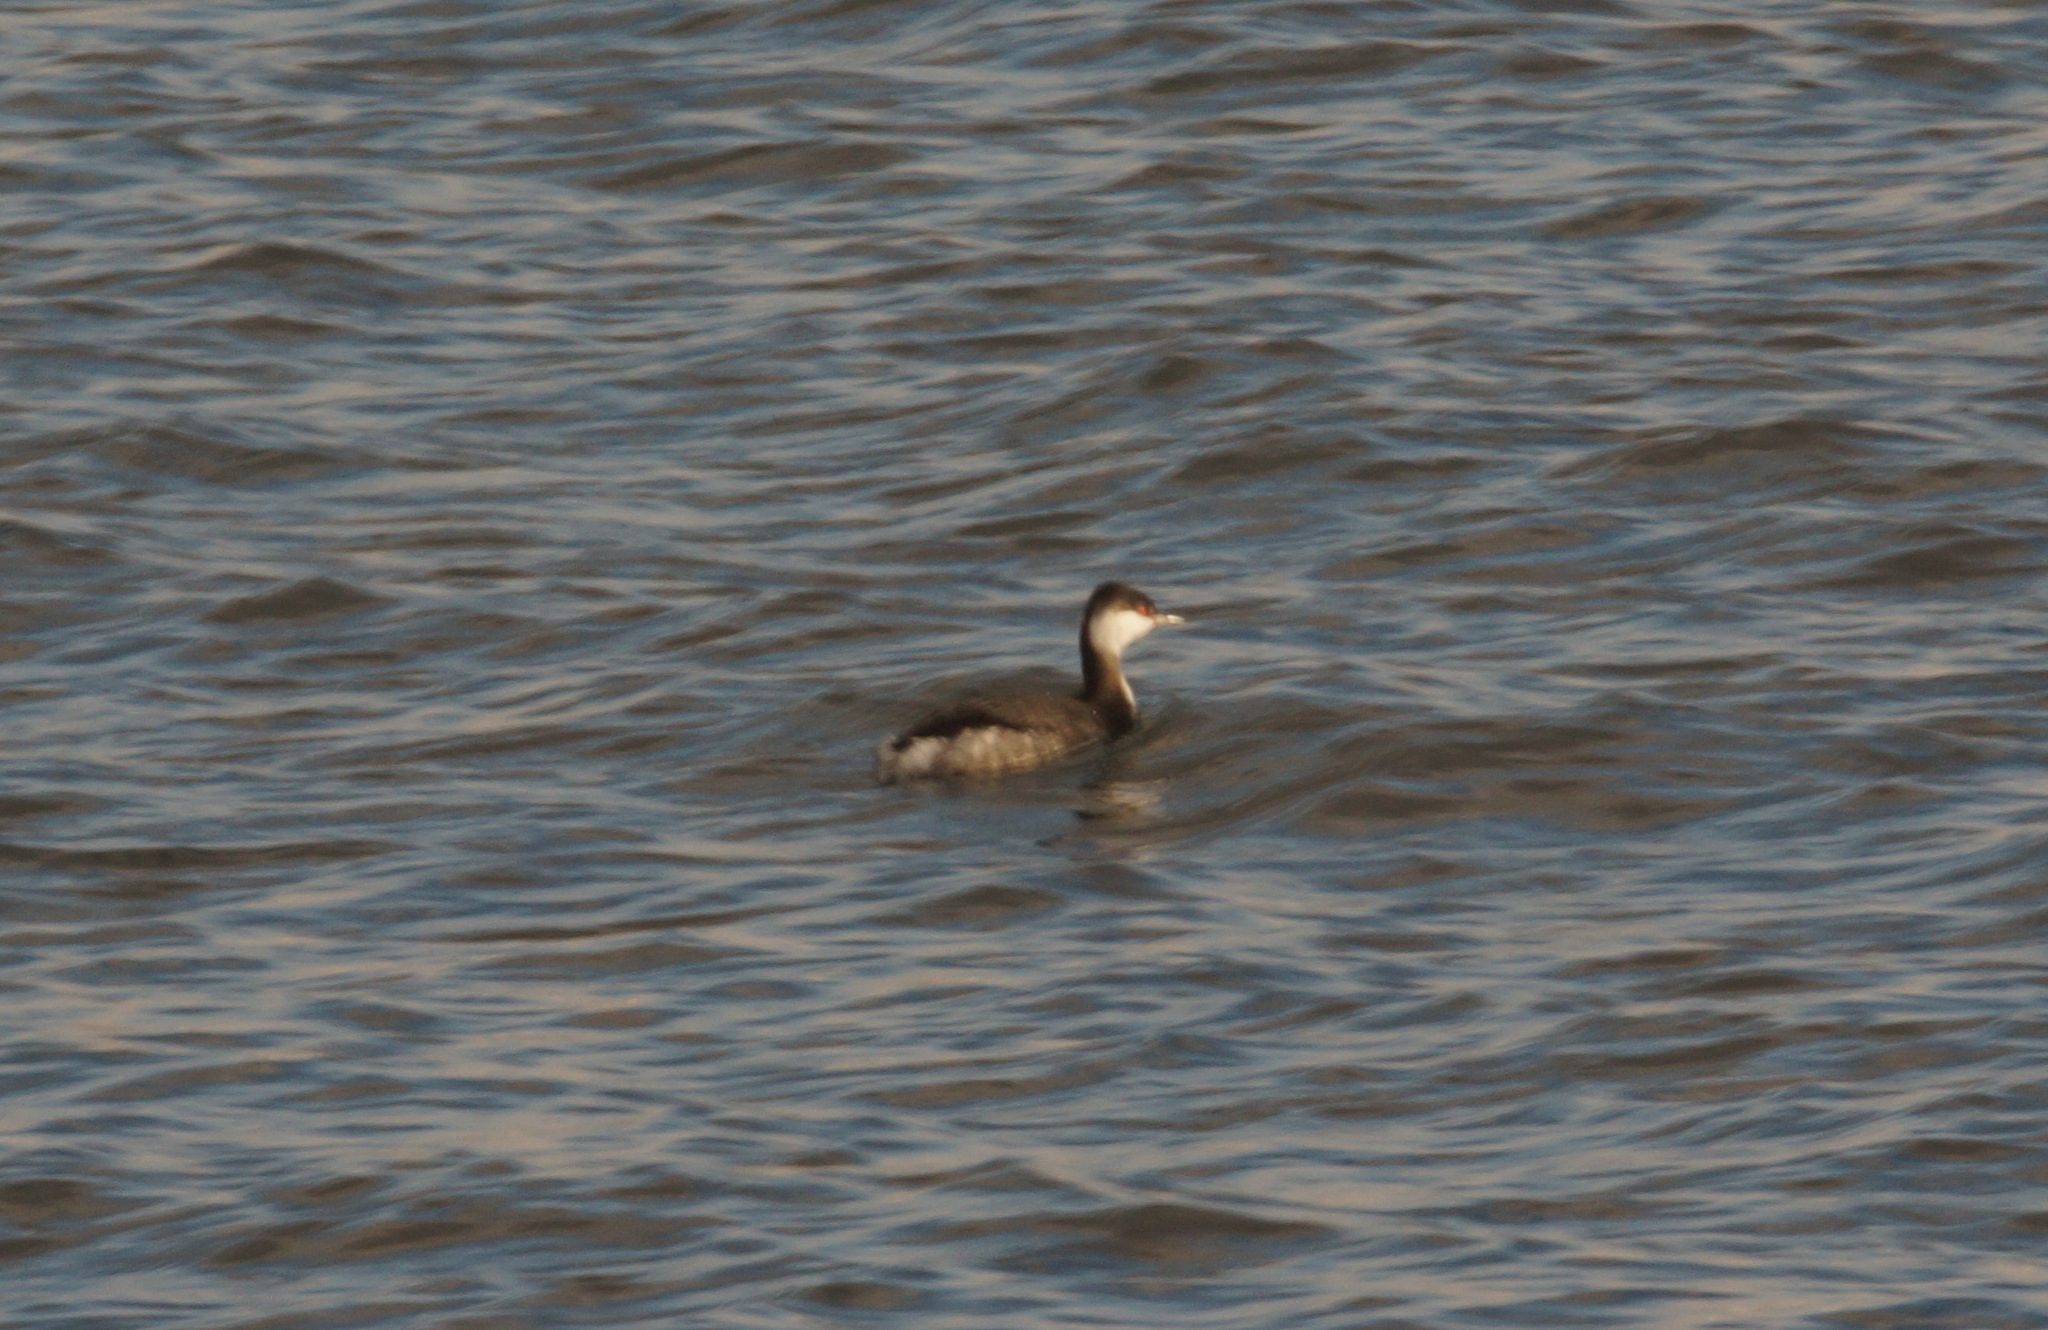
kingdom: Animalia
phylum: Chordata
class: Aves
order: Podicipediformes
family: Podicipedidae
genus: Podiceps
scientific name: Podiceps auritus
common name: Horned grebe
